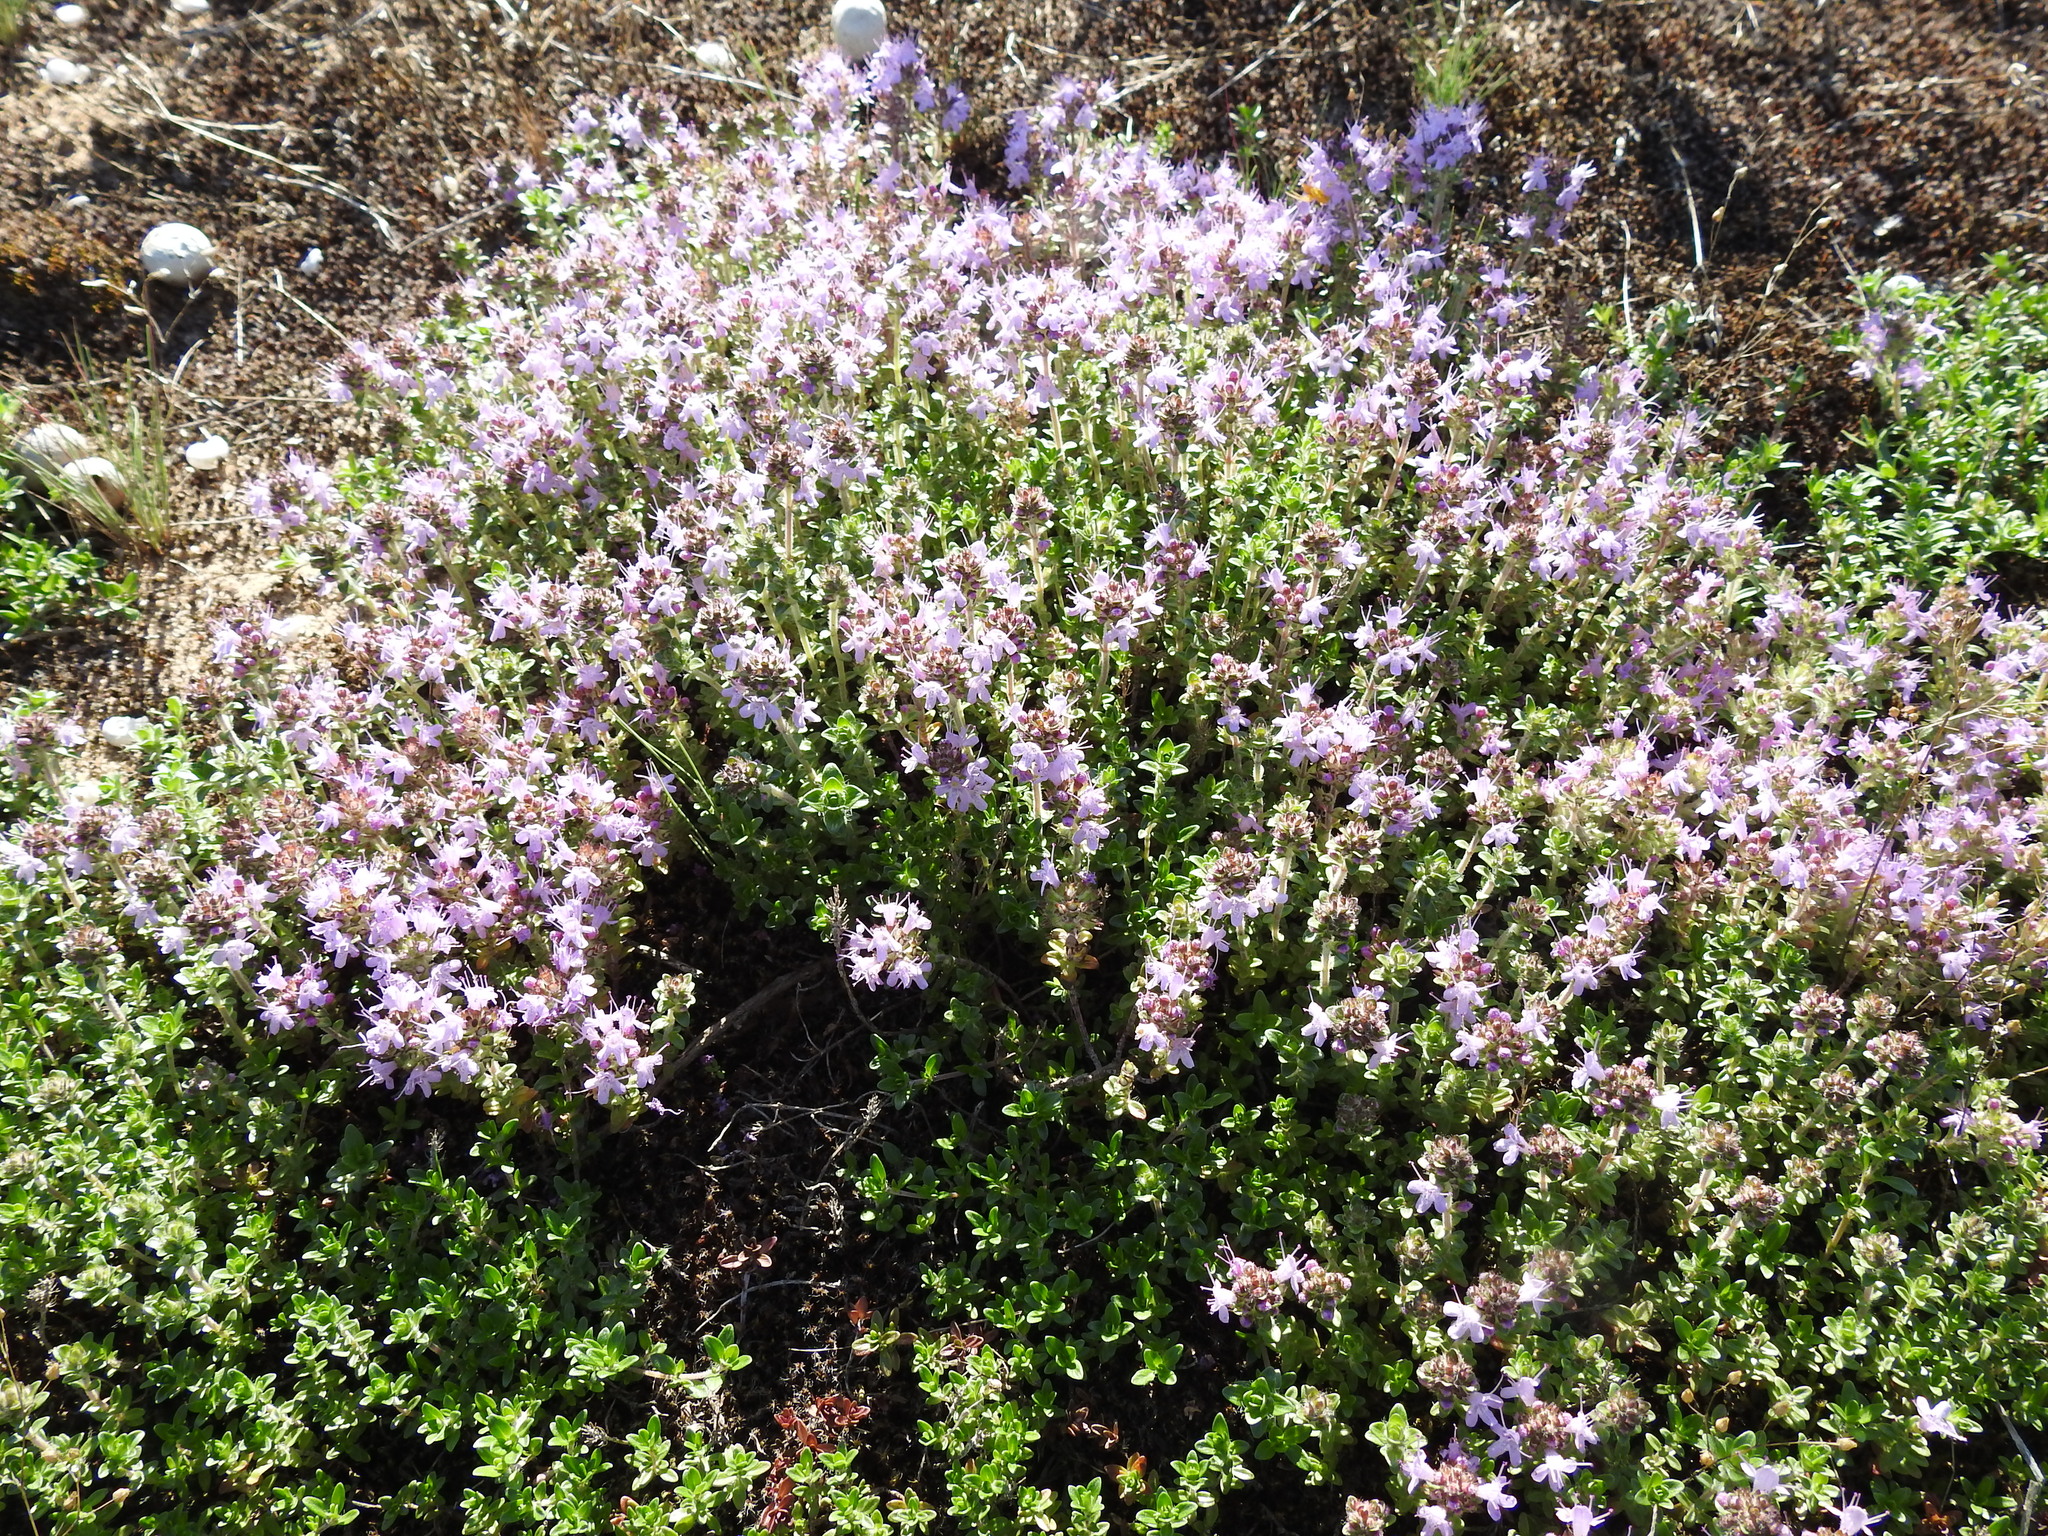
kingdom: Plantae
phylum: Tracheophyta
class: Magnoliopsida
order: Lamiales
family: Lamiaceae
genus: Thymus
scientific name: Thymus serpyllum
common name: Breckland thyme
